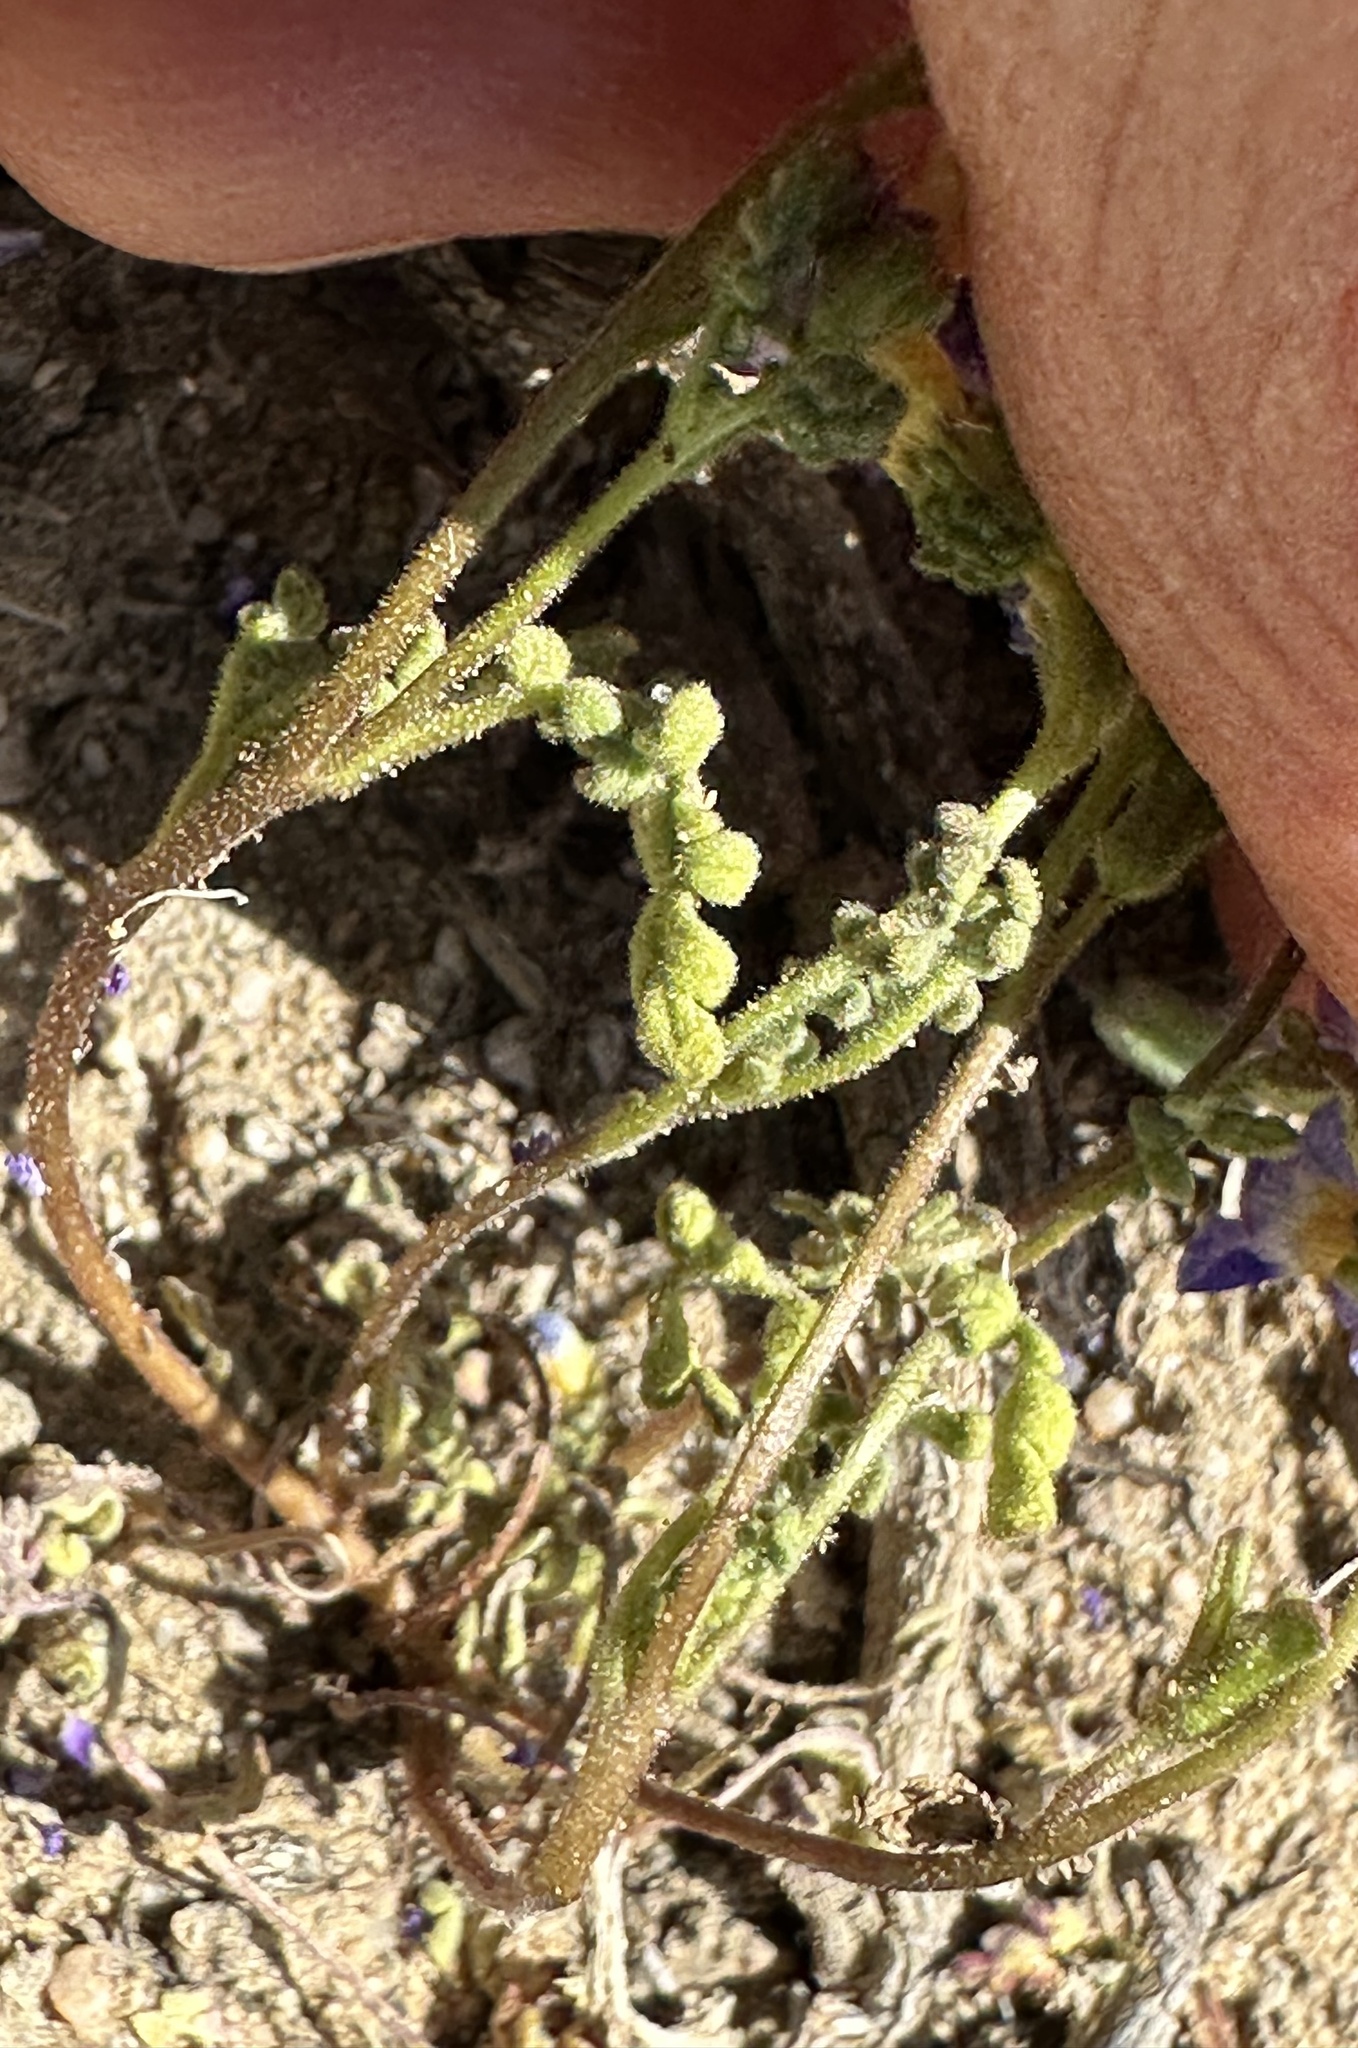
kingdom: Plantae
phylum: Tracheophyta
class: Magnoliopsida
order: Boraginales
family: Hydrophyllaceae
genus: Phacelia
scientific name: Phacelia fremontii
